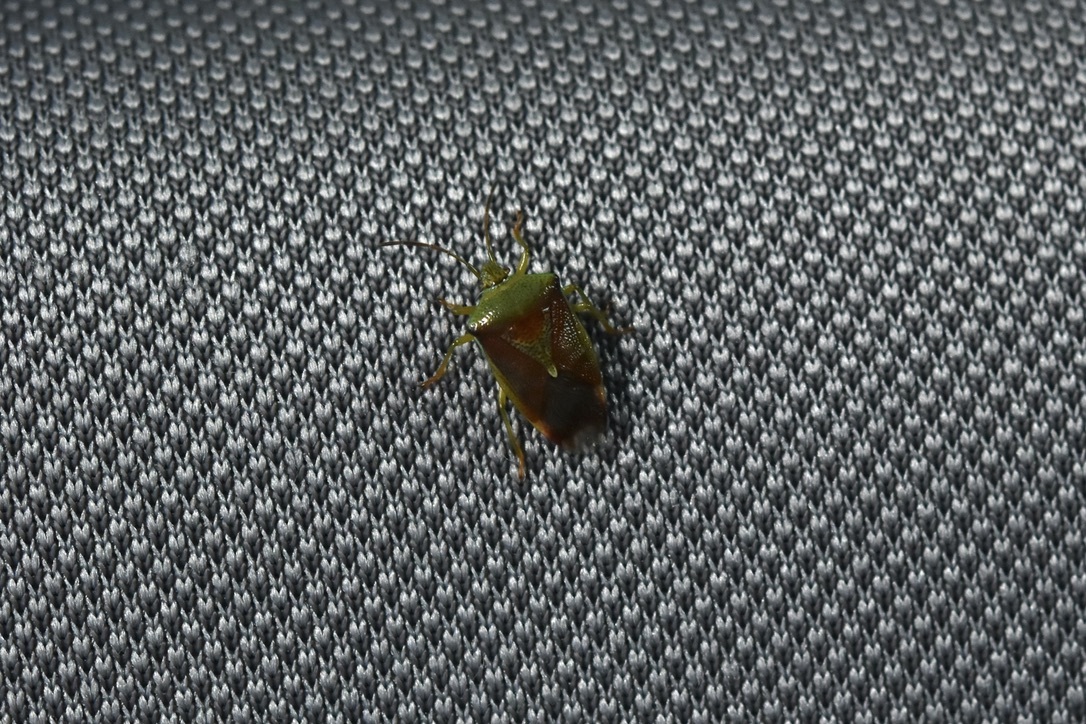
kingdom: Animalia
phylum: Arthropoda
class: Insecta
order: Hemiptera
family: Acanthosomatidae
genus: Elasmostethus
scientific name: Elasmostethus interstinctus
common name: Birch shieldbug
